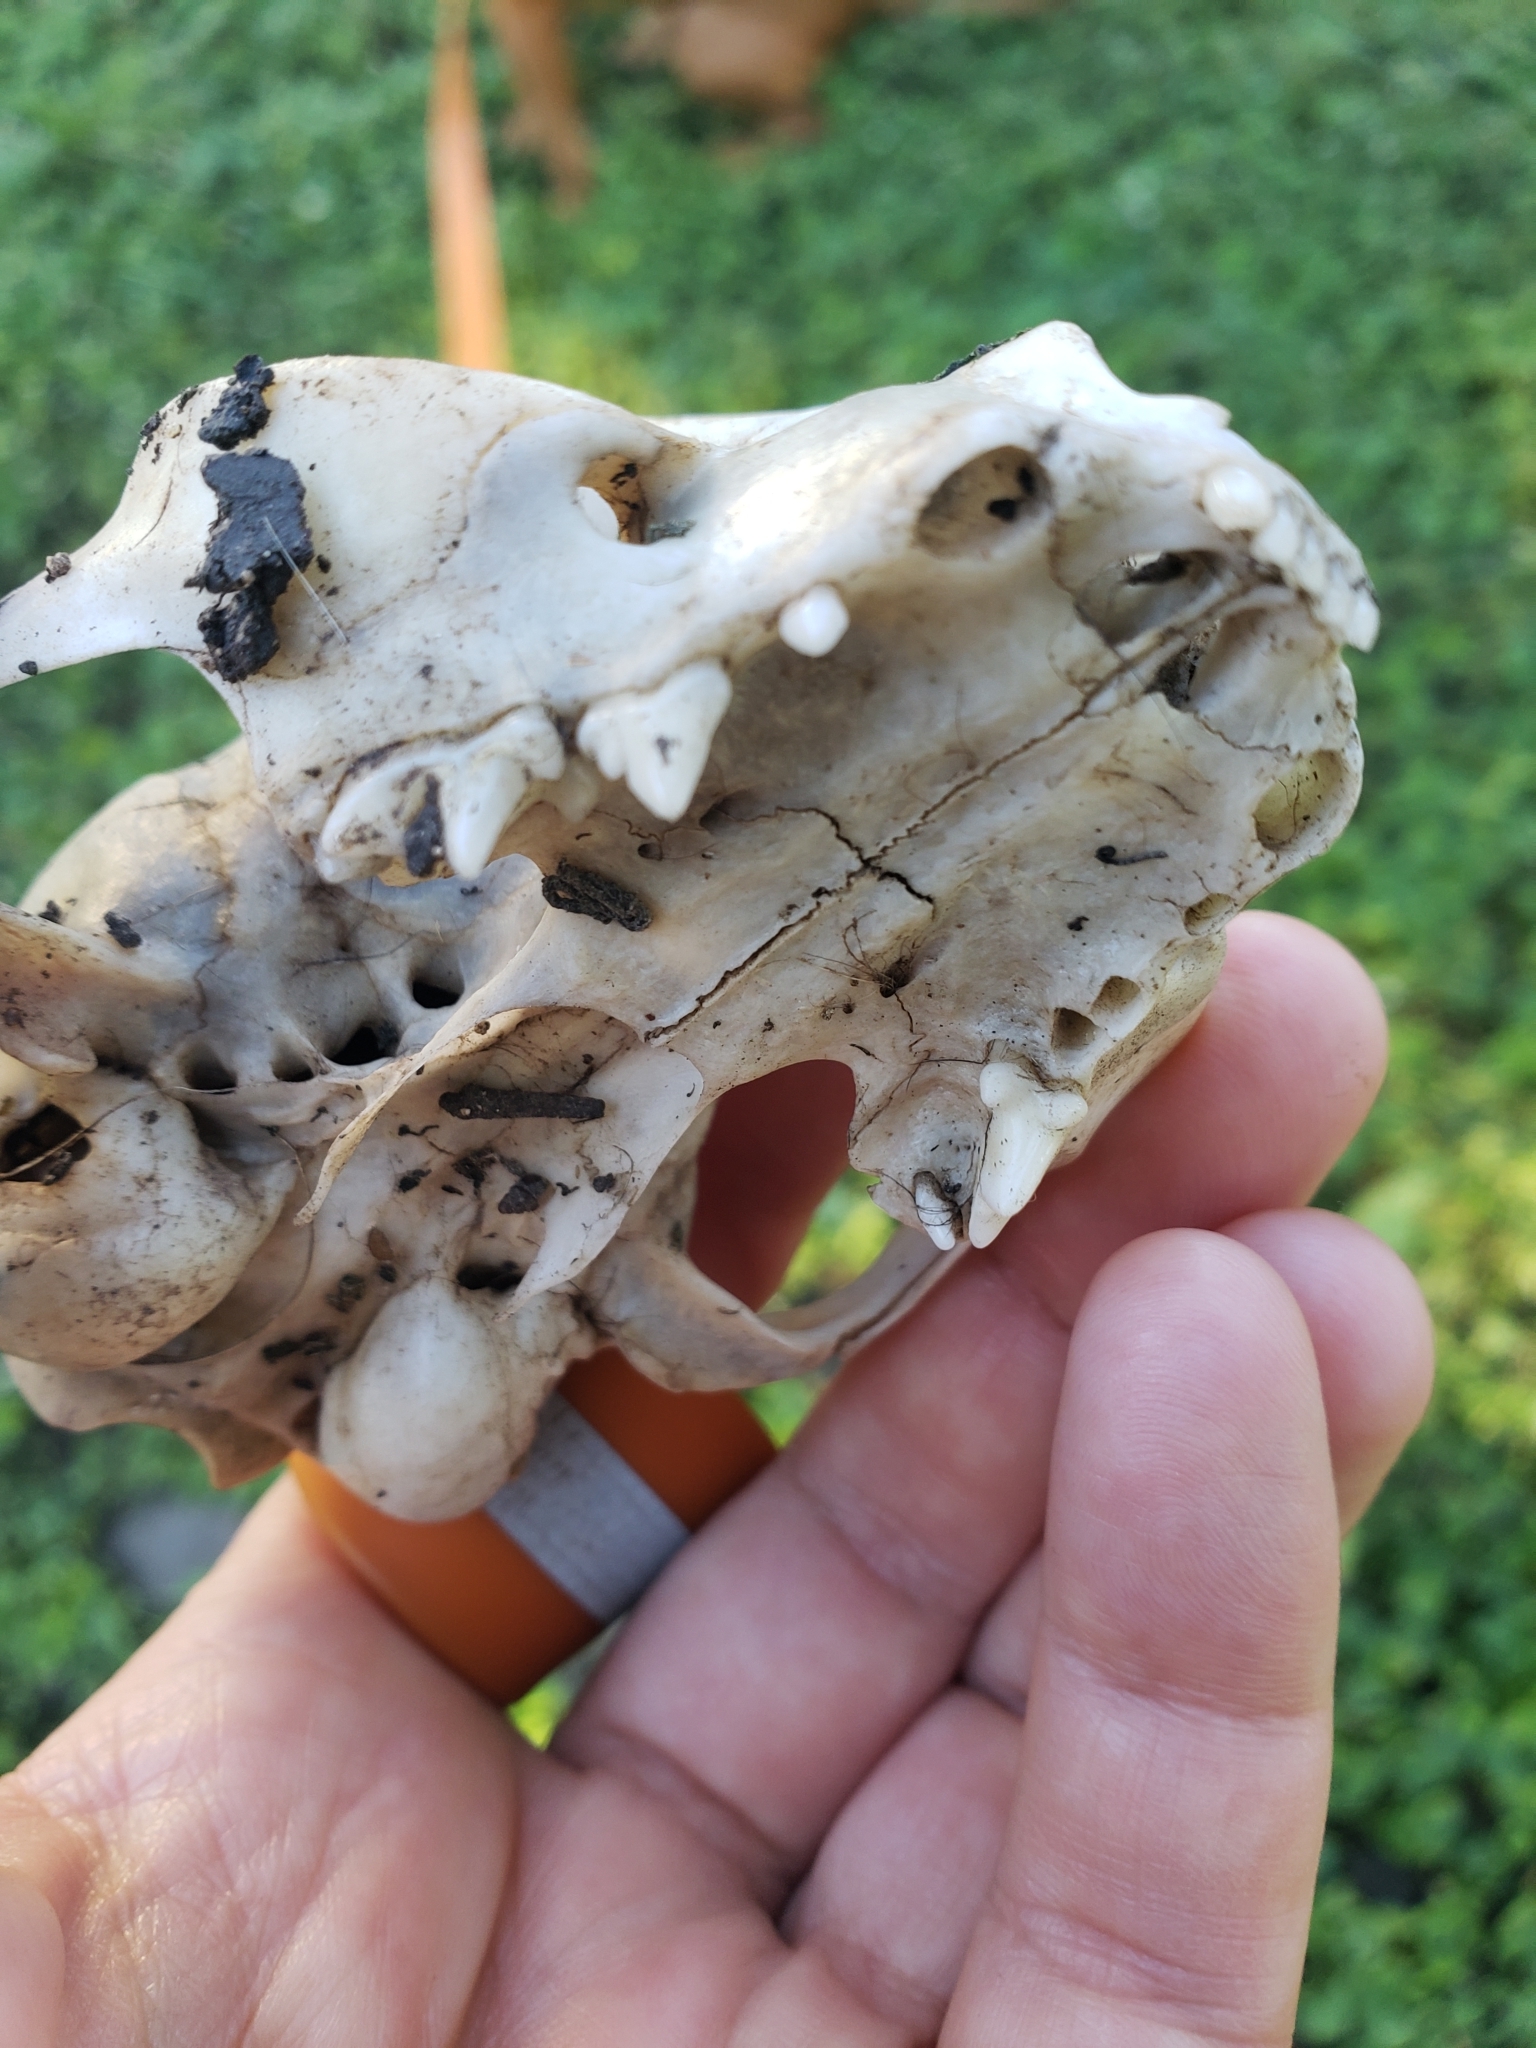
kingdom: Animalia
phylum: Chordata
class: Mammalia
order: Carnivora
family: Felidae
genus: Felis
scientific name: Felis catus
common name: Domestic cat
